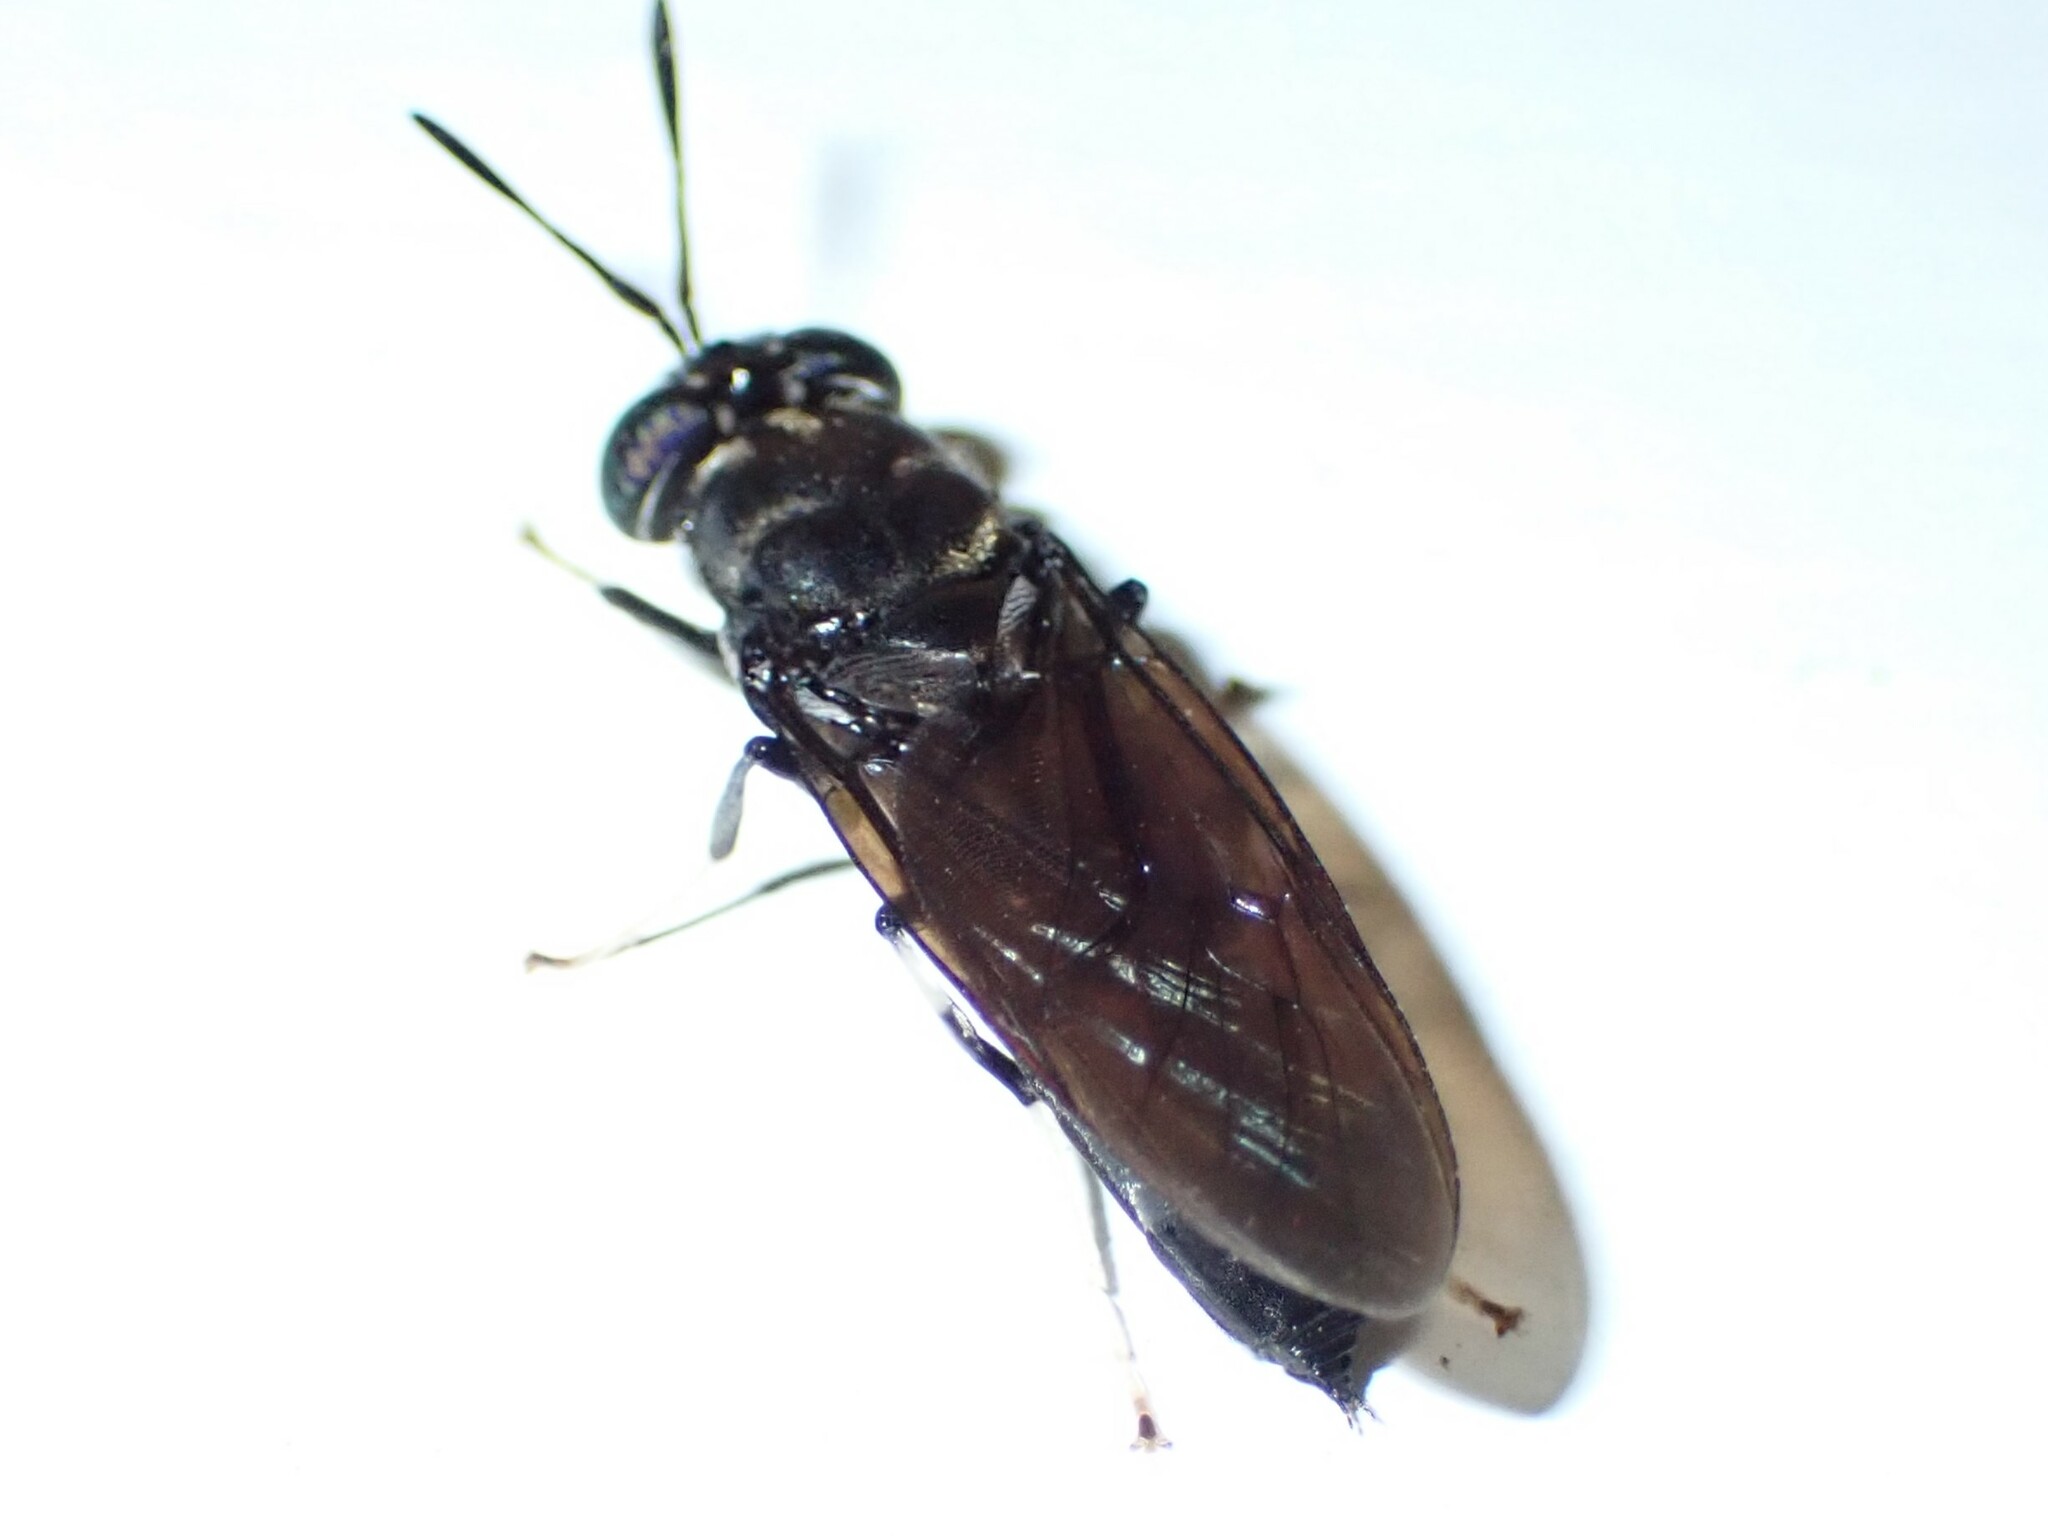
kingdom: Animalia
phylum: Arthropoda
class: Insecta
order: Diptera
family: Stratiomyidae
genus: Hermetia
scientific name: Hermetia illucens
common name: Black soldier fly
